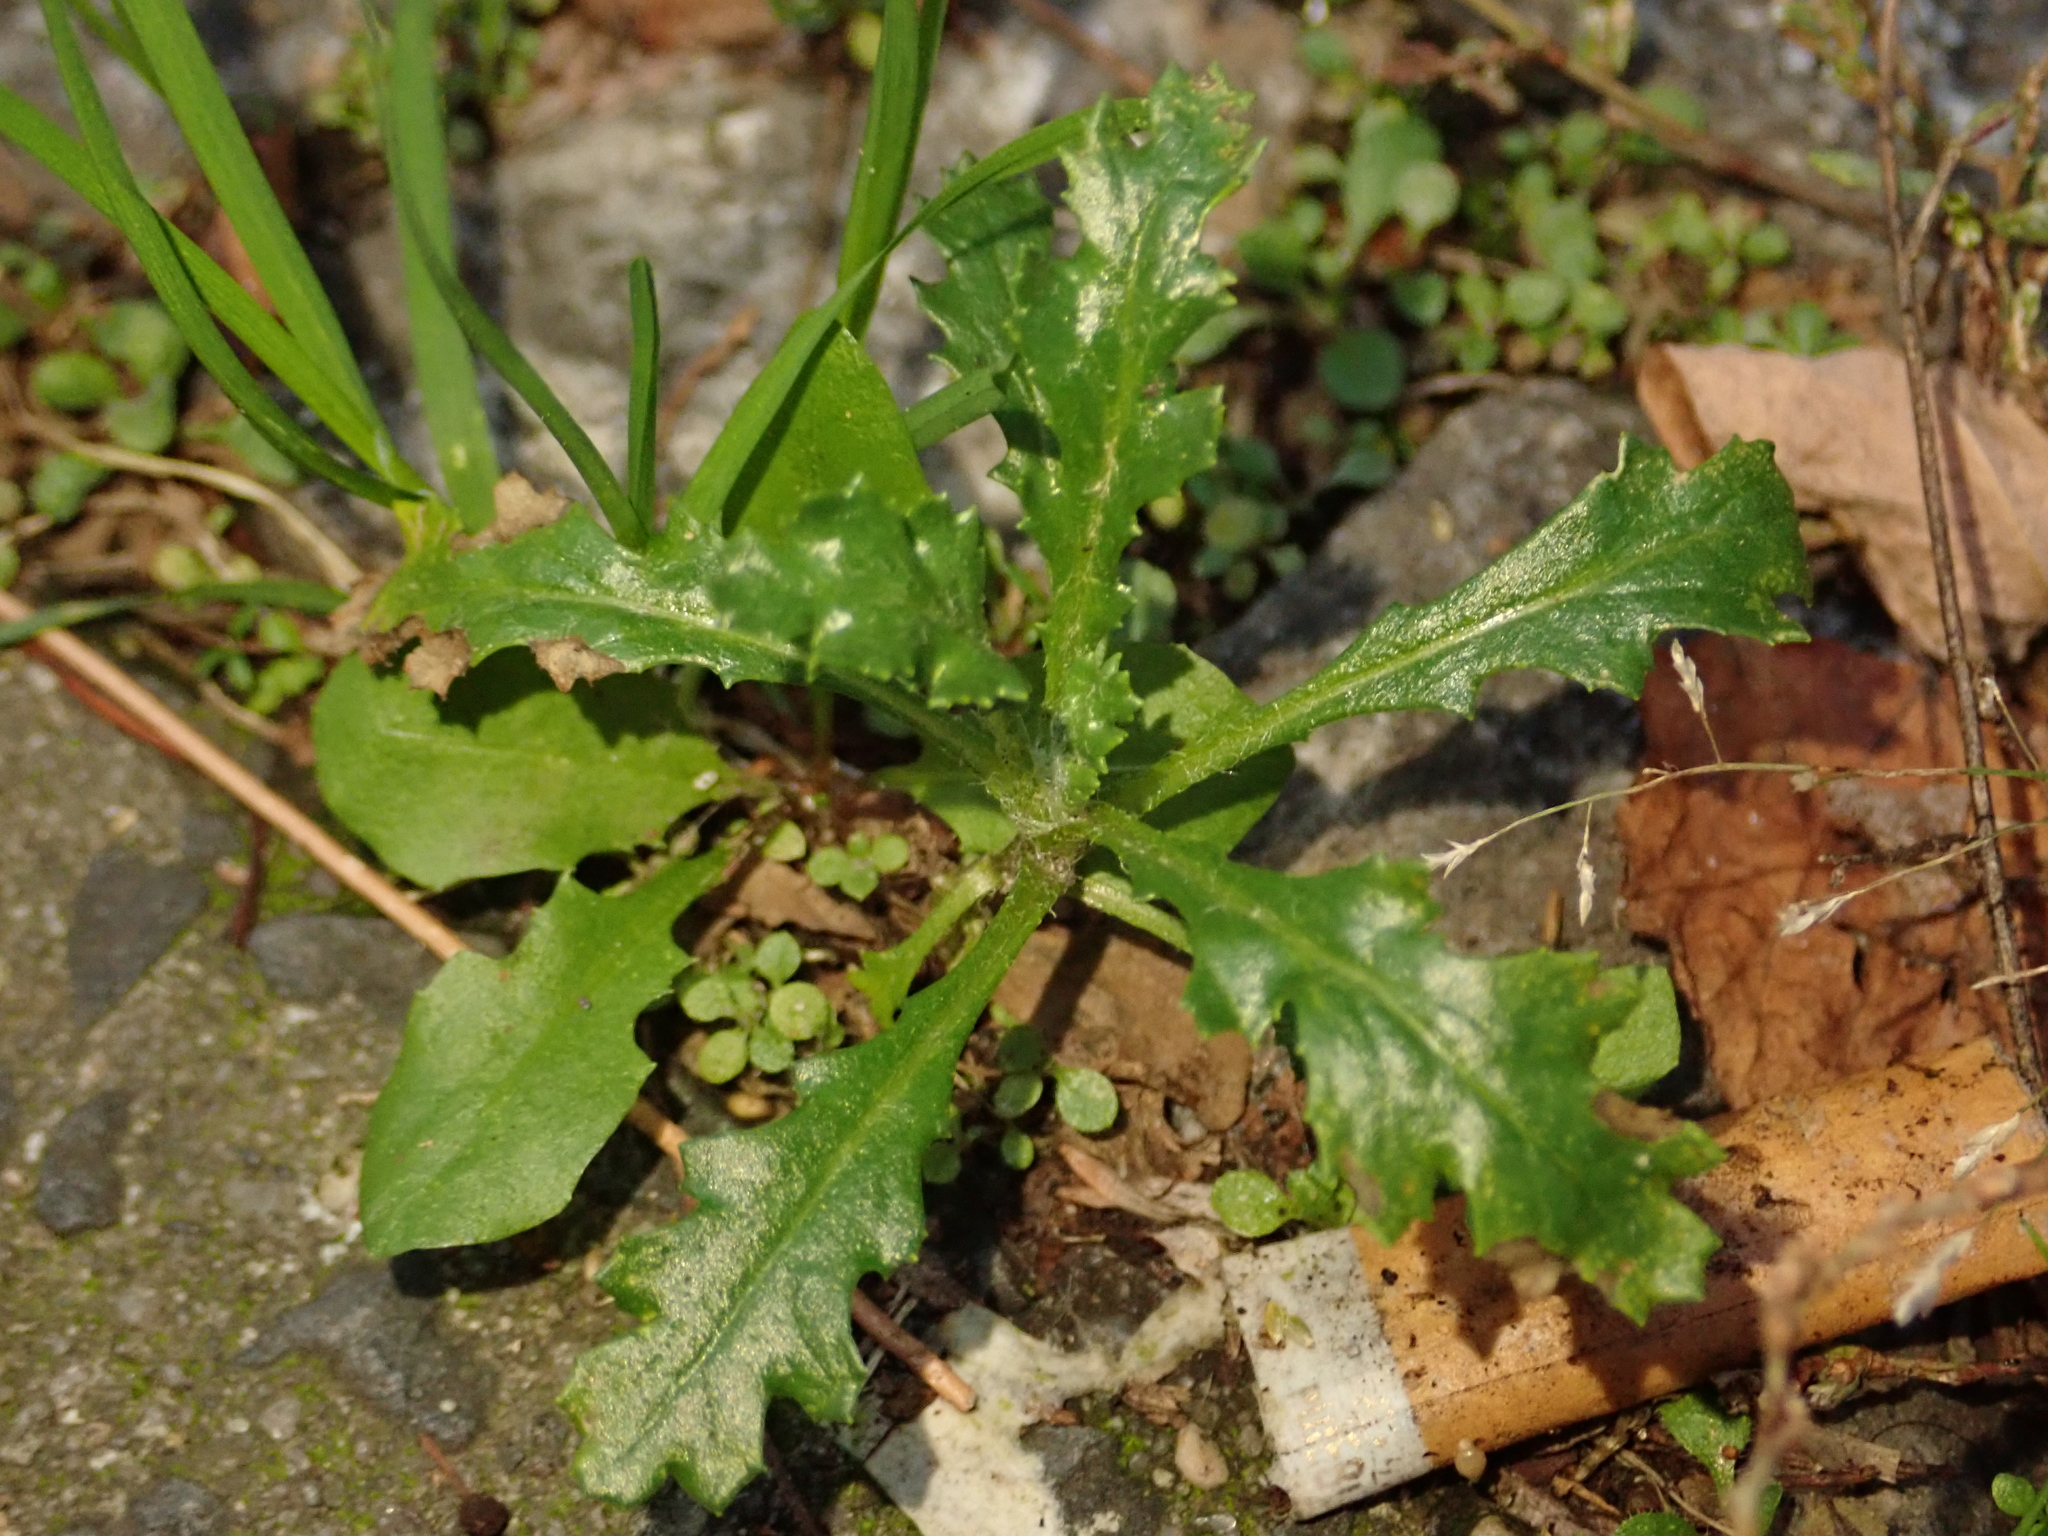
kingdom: Plantae
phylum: Tracheophyta
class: Magnoliopsida
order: Asterales
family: Asteraceae
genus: Senecio
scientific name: Senecio vulgaris
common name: Old-man-in-the-spring
